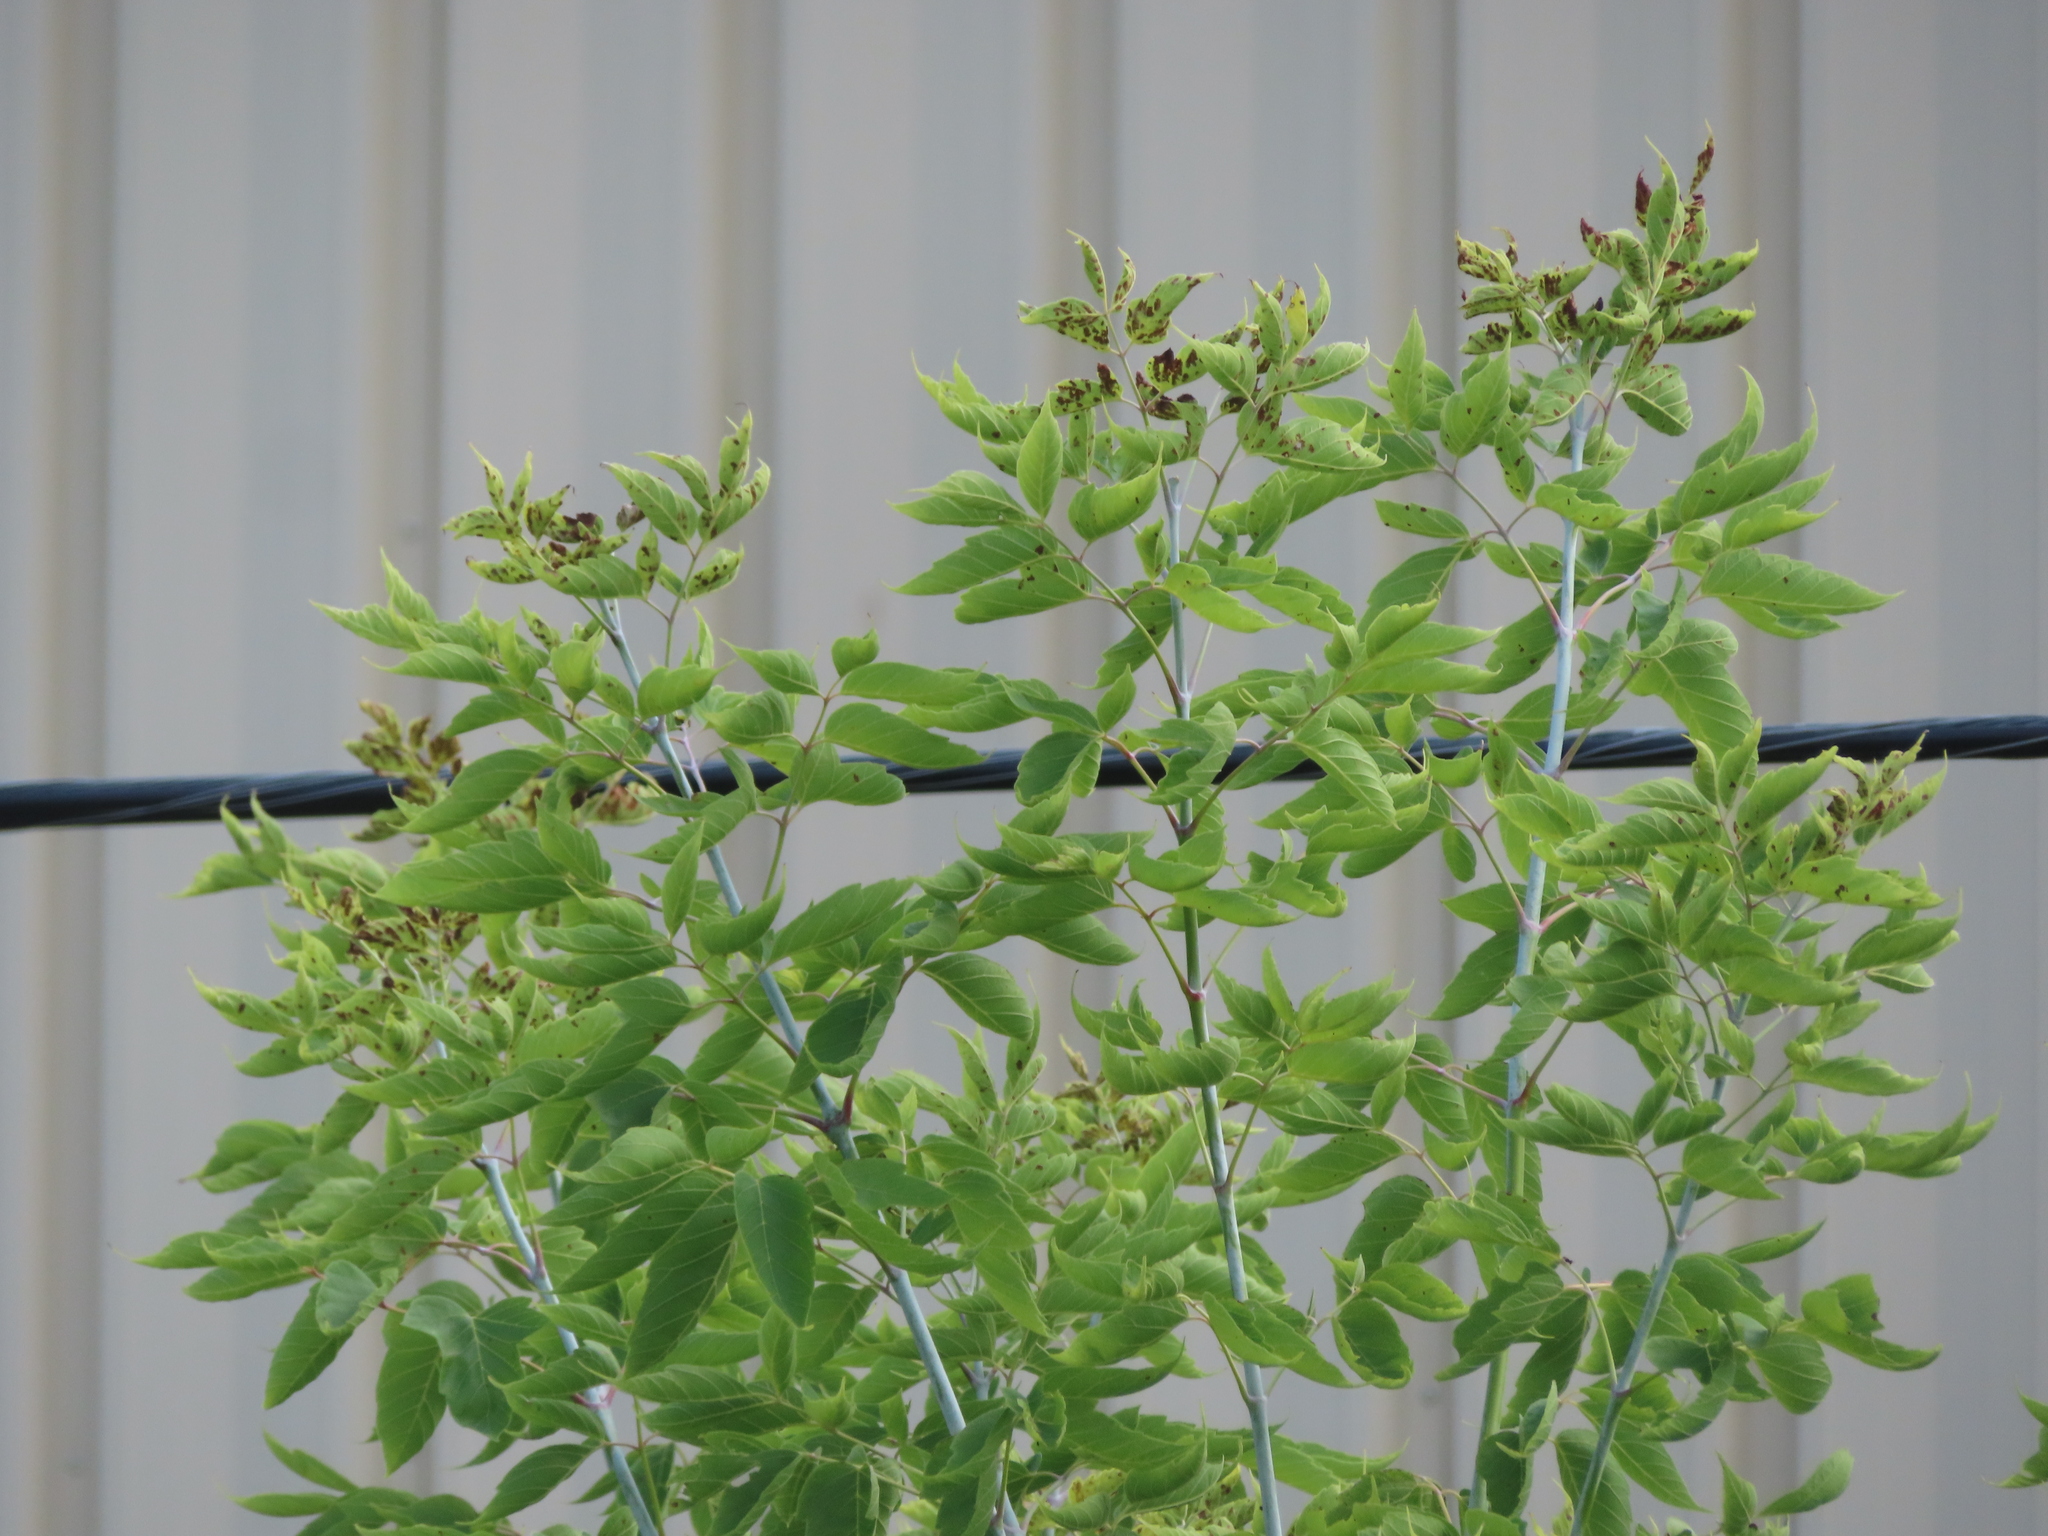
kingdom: Plantae
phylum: Tracheophyta
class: Magnoliopsida
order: Sapindales
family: Sapindaceae
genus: Acer
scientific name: Acer negundo
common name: Ashleaf maple
